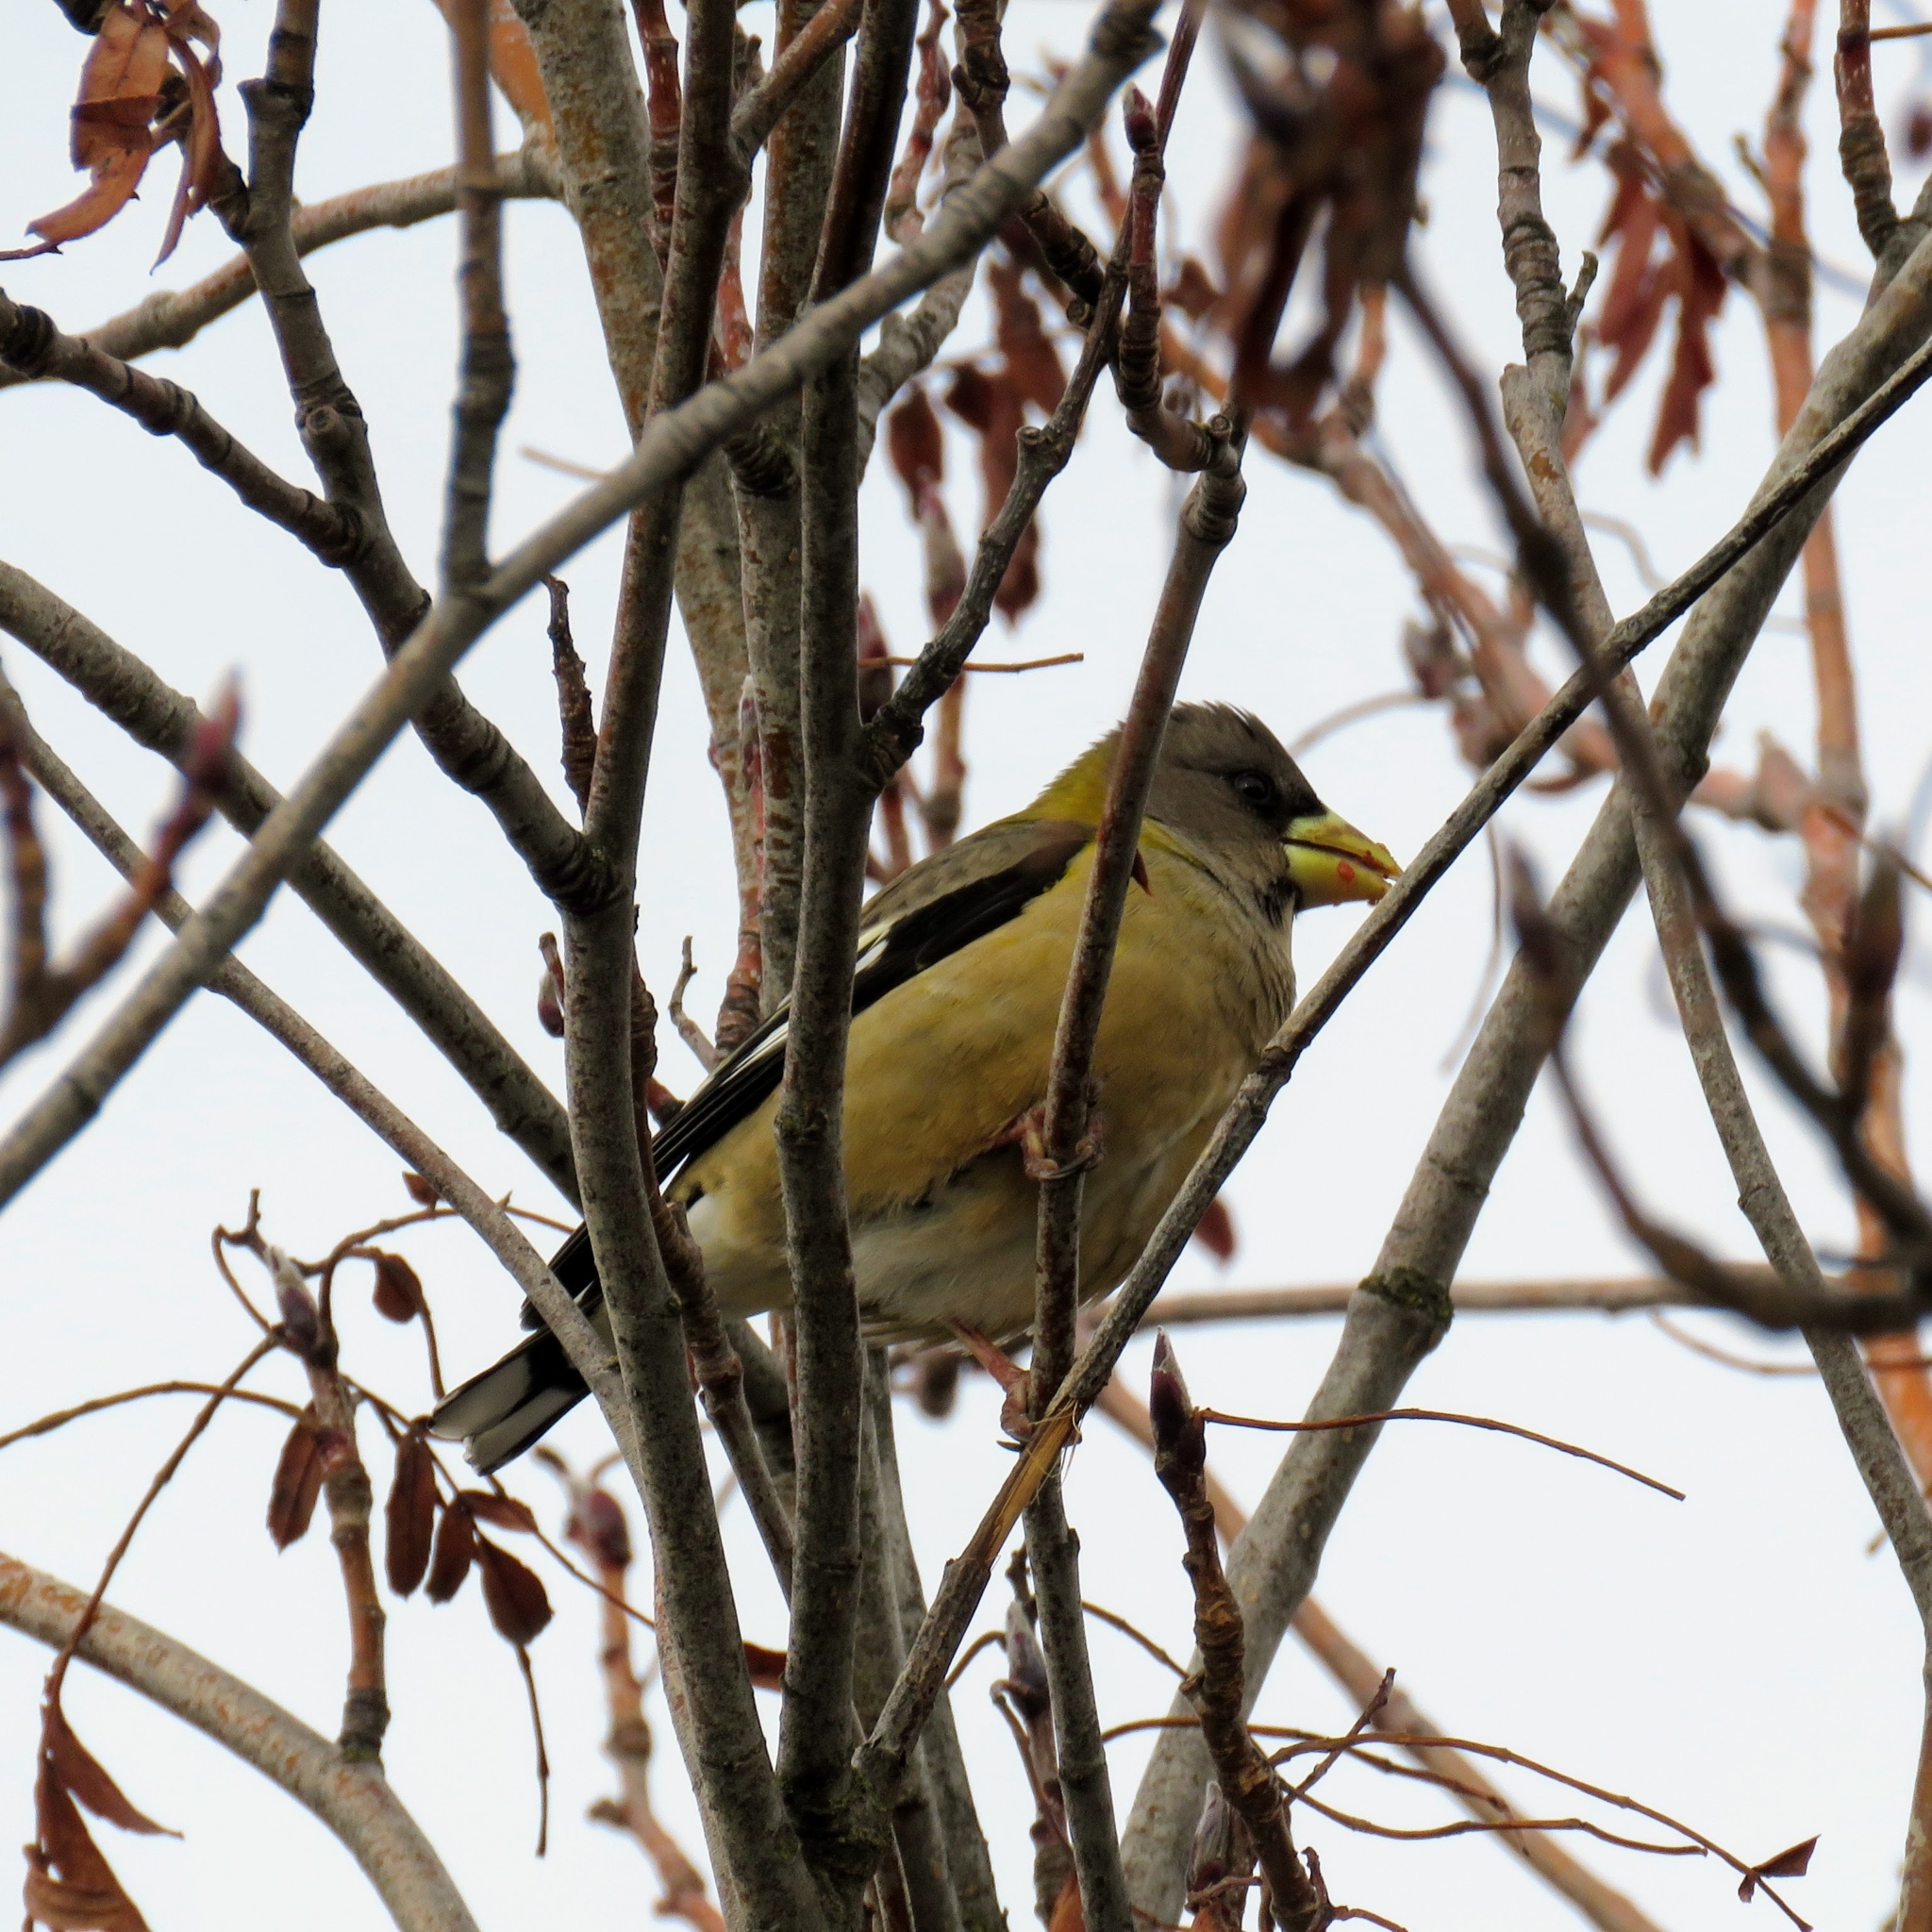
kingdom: Animalia
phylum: Chordata
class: Aves
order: Passeriformes
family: Fringillidae
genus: Hesperiphona
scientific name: Hesperiphona vespertina
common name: Evening grosbeak
